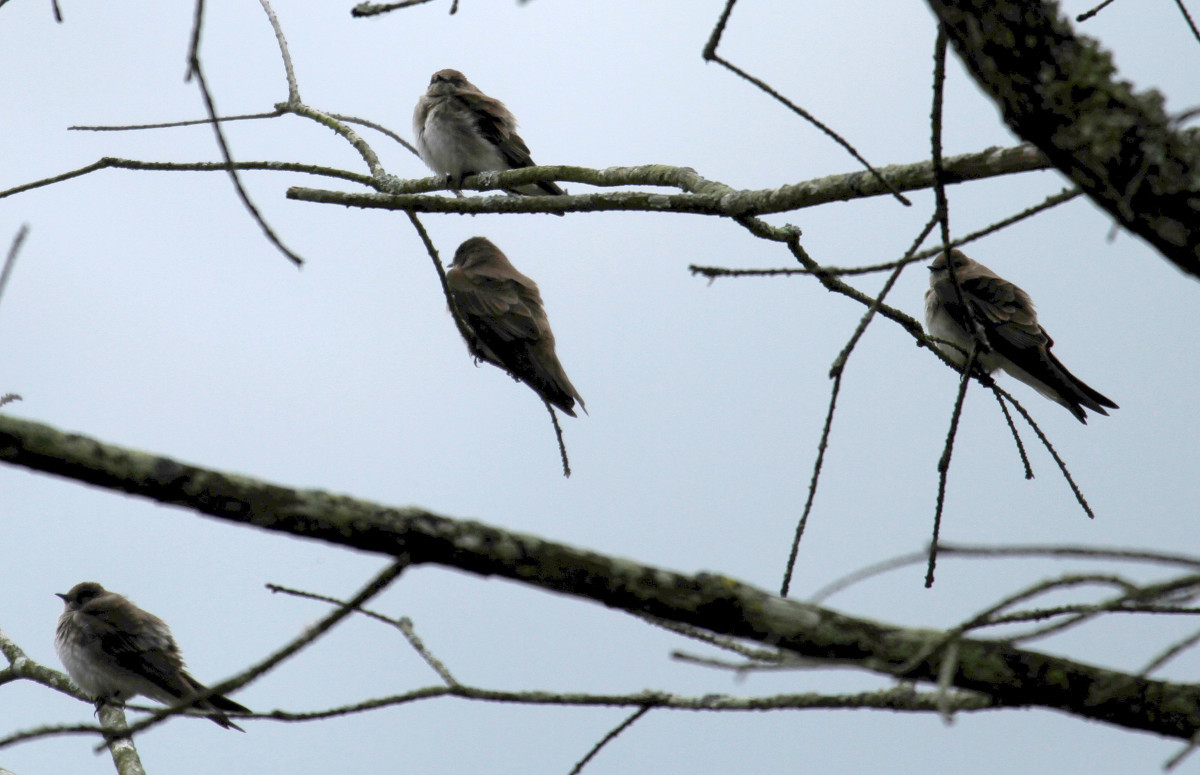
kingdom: Animalia
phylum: Chordata
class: Aves
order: Passeriformes
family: Hirundinidae
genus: Stelgidopteryx
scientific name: Stelgidopteryx serripennis
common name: Northern rough-winged swallow
